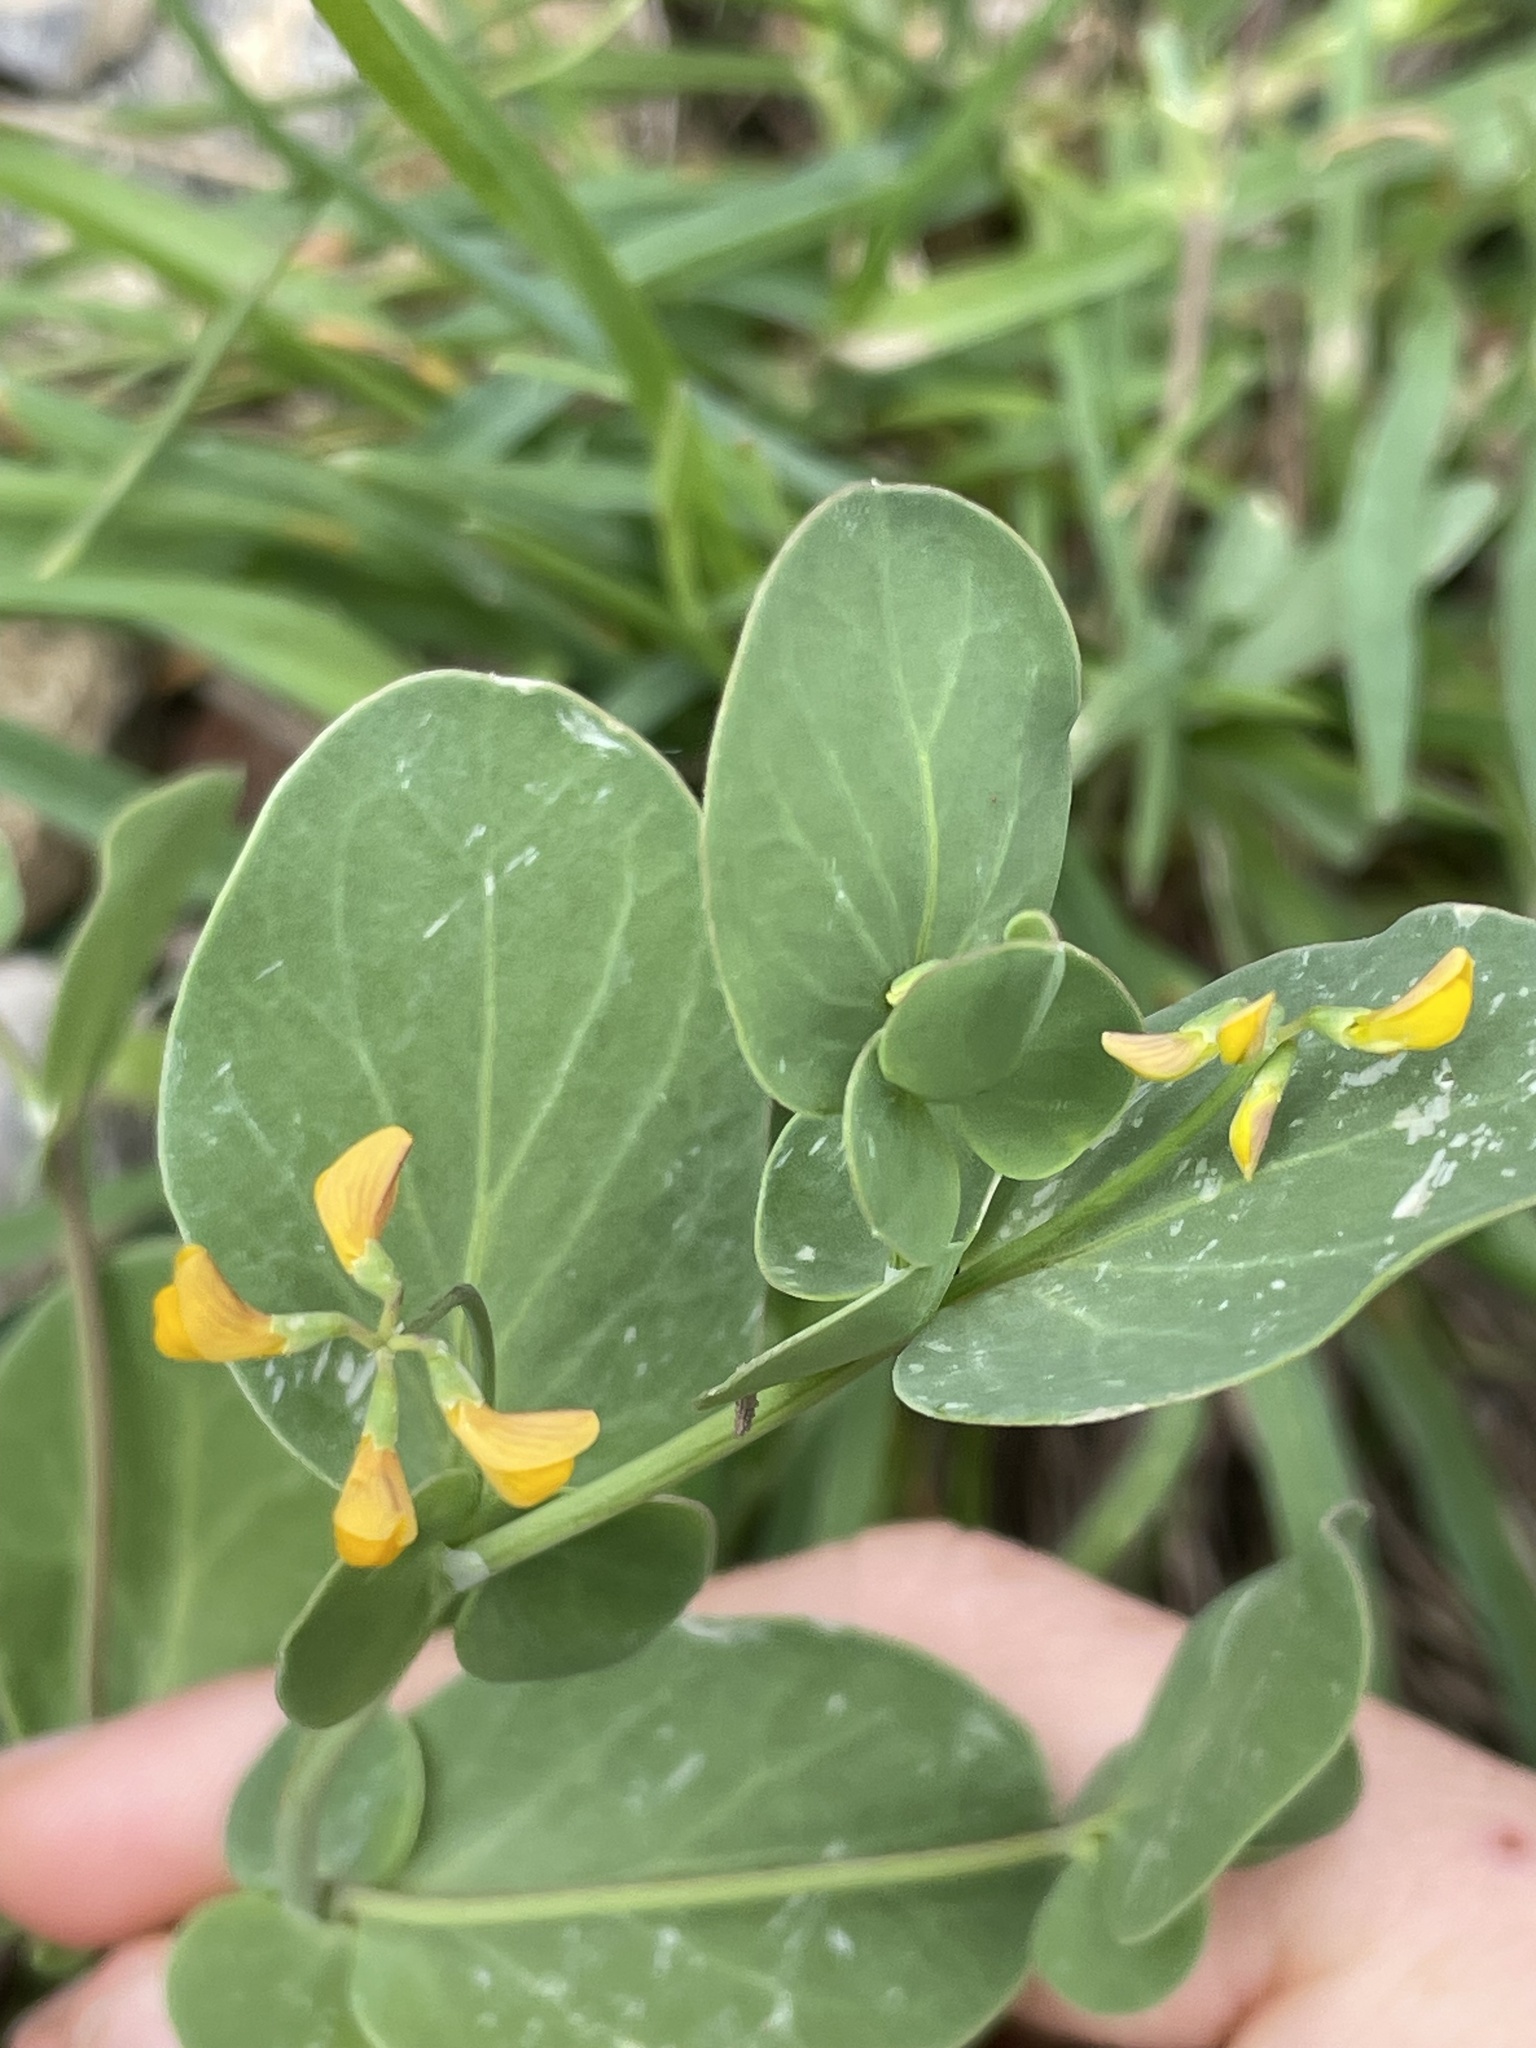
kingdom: Plantae
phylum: Tracheophyta
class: Magnoliopsida
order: Fabales
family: Fabaceae
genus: Coronilla
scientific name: Coronilla scorpioides
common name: Annual scorpion-vetch
